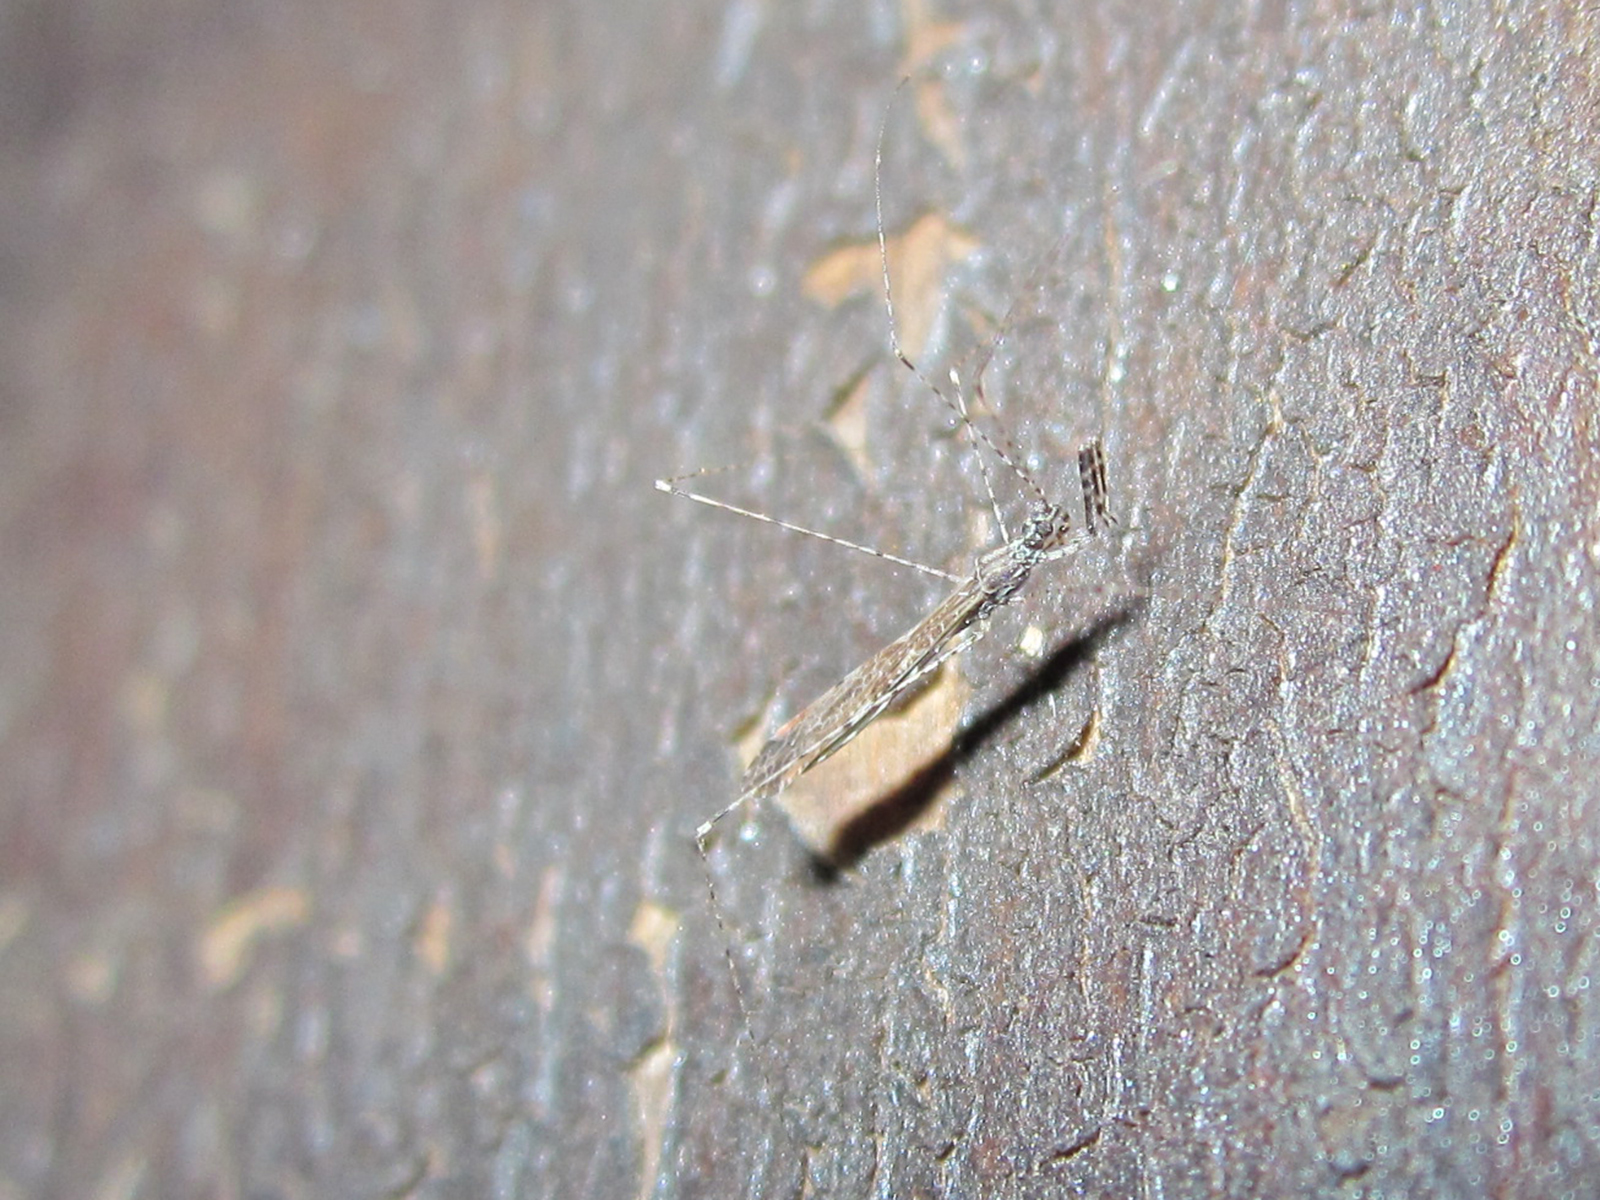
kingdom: Animalia
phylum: Arthropoda
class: Insecta
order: Hemiptera
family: Reduviidae
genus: Empicoris
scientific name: Empicoris rubromaculatus
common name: Thread-legged bug
